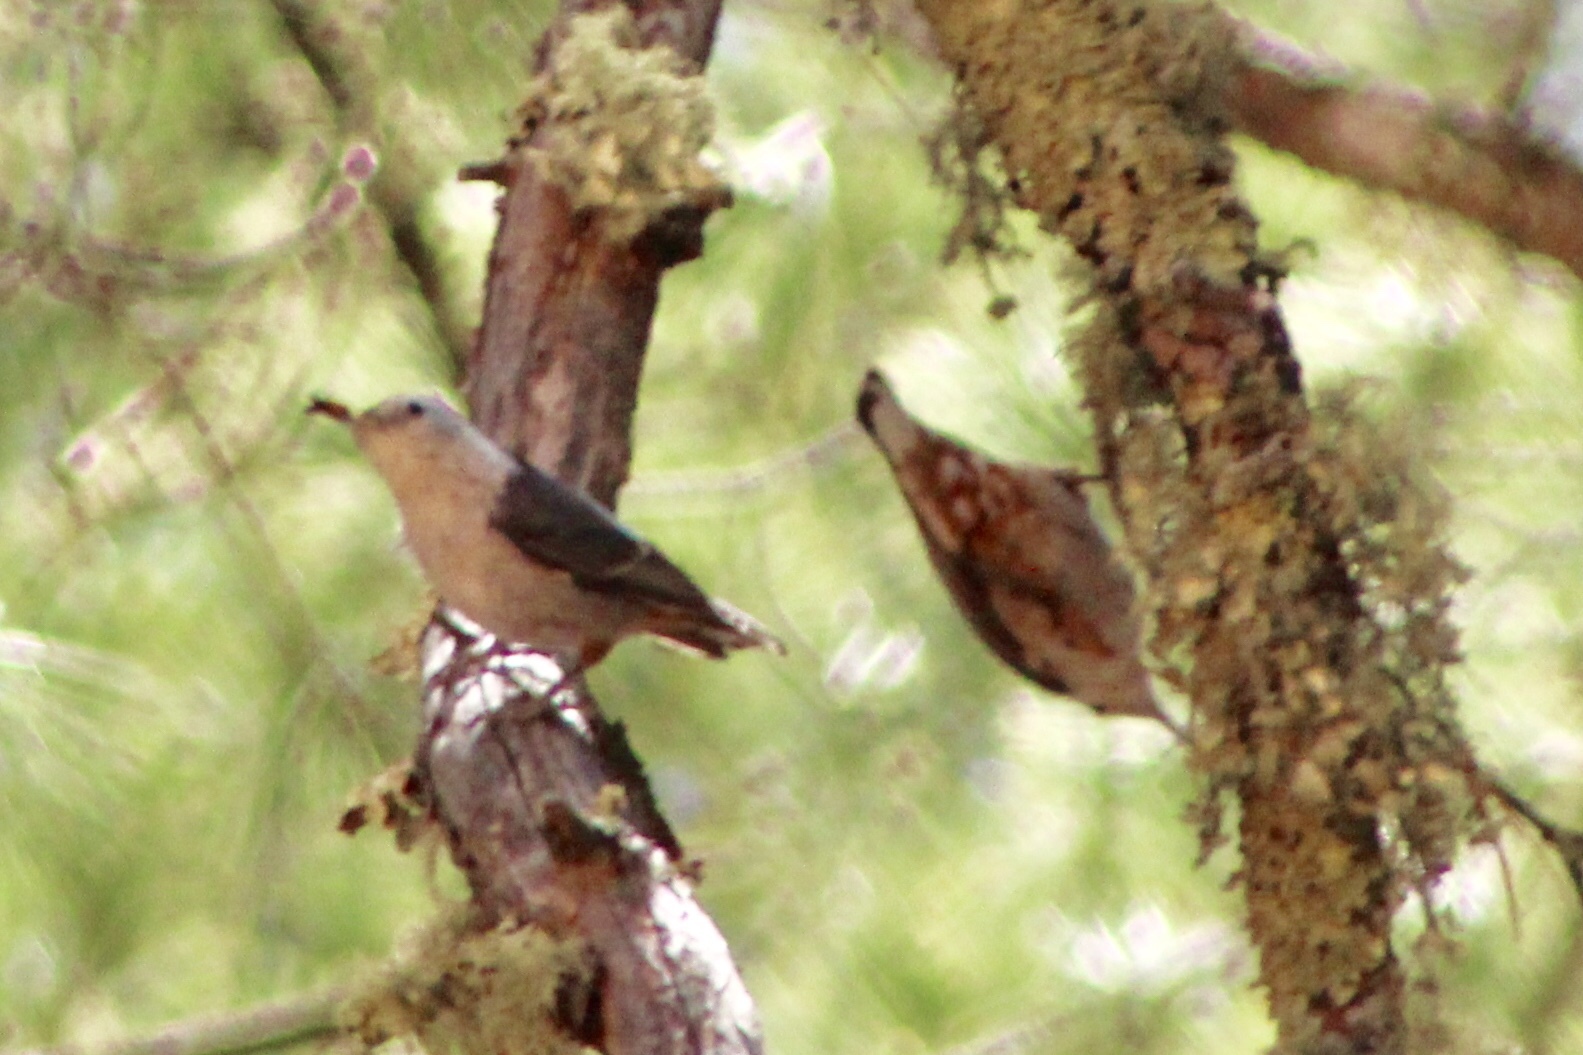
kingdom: Animalia
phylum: Chordata
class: Aves
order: Passeriformes
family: Sittidae
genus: Sitta
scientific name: Sitta carolinensis
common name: White-breasted nuthatch
